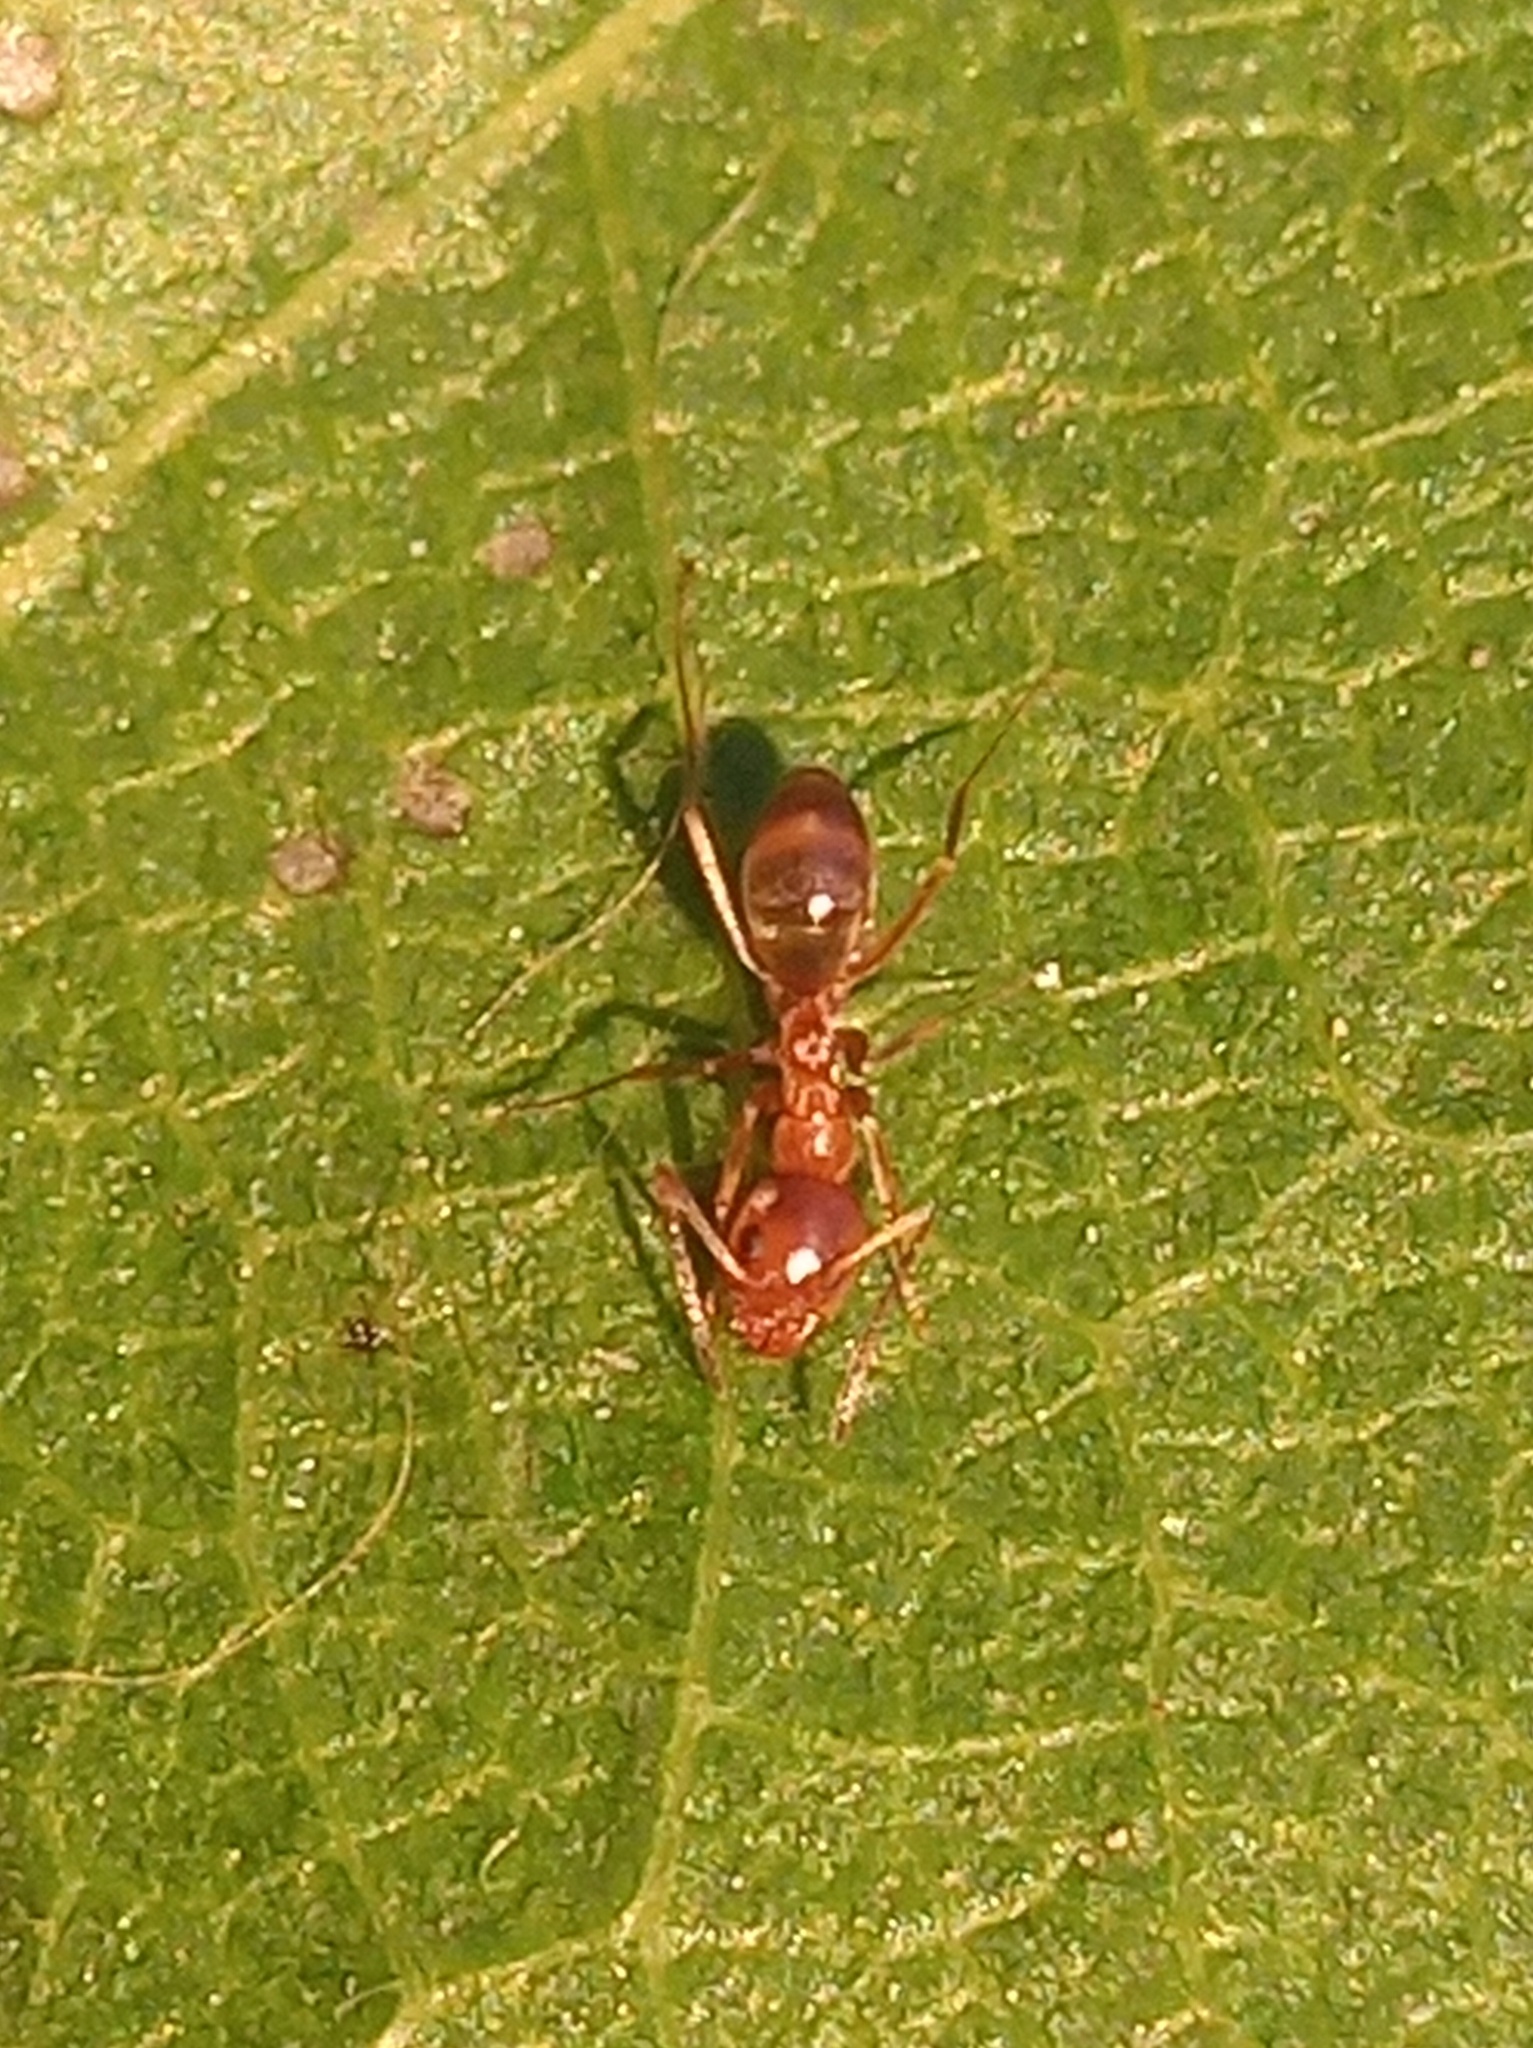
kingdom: Animalia
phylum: Arthropoda
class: Insecta
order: Hymenoptera
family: Formicidae
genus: Dorymyrmex
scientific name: Dorymyrmex flavus
